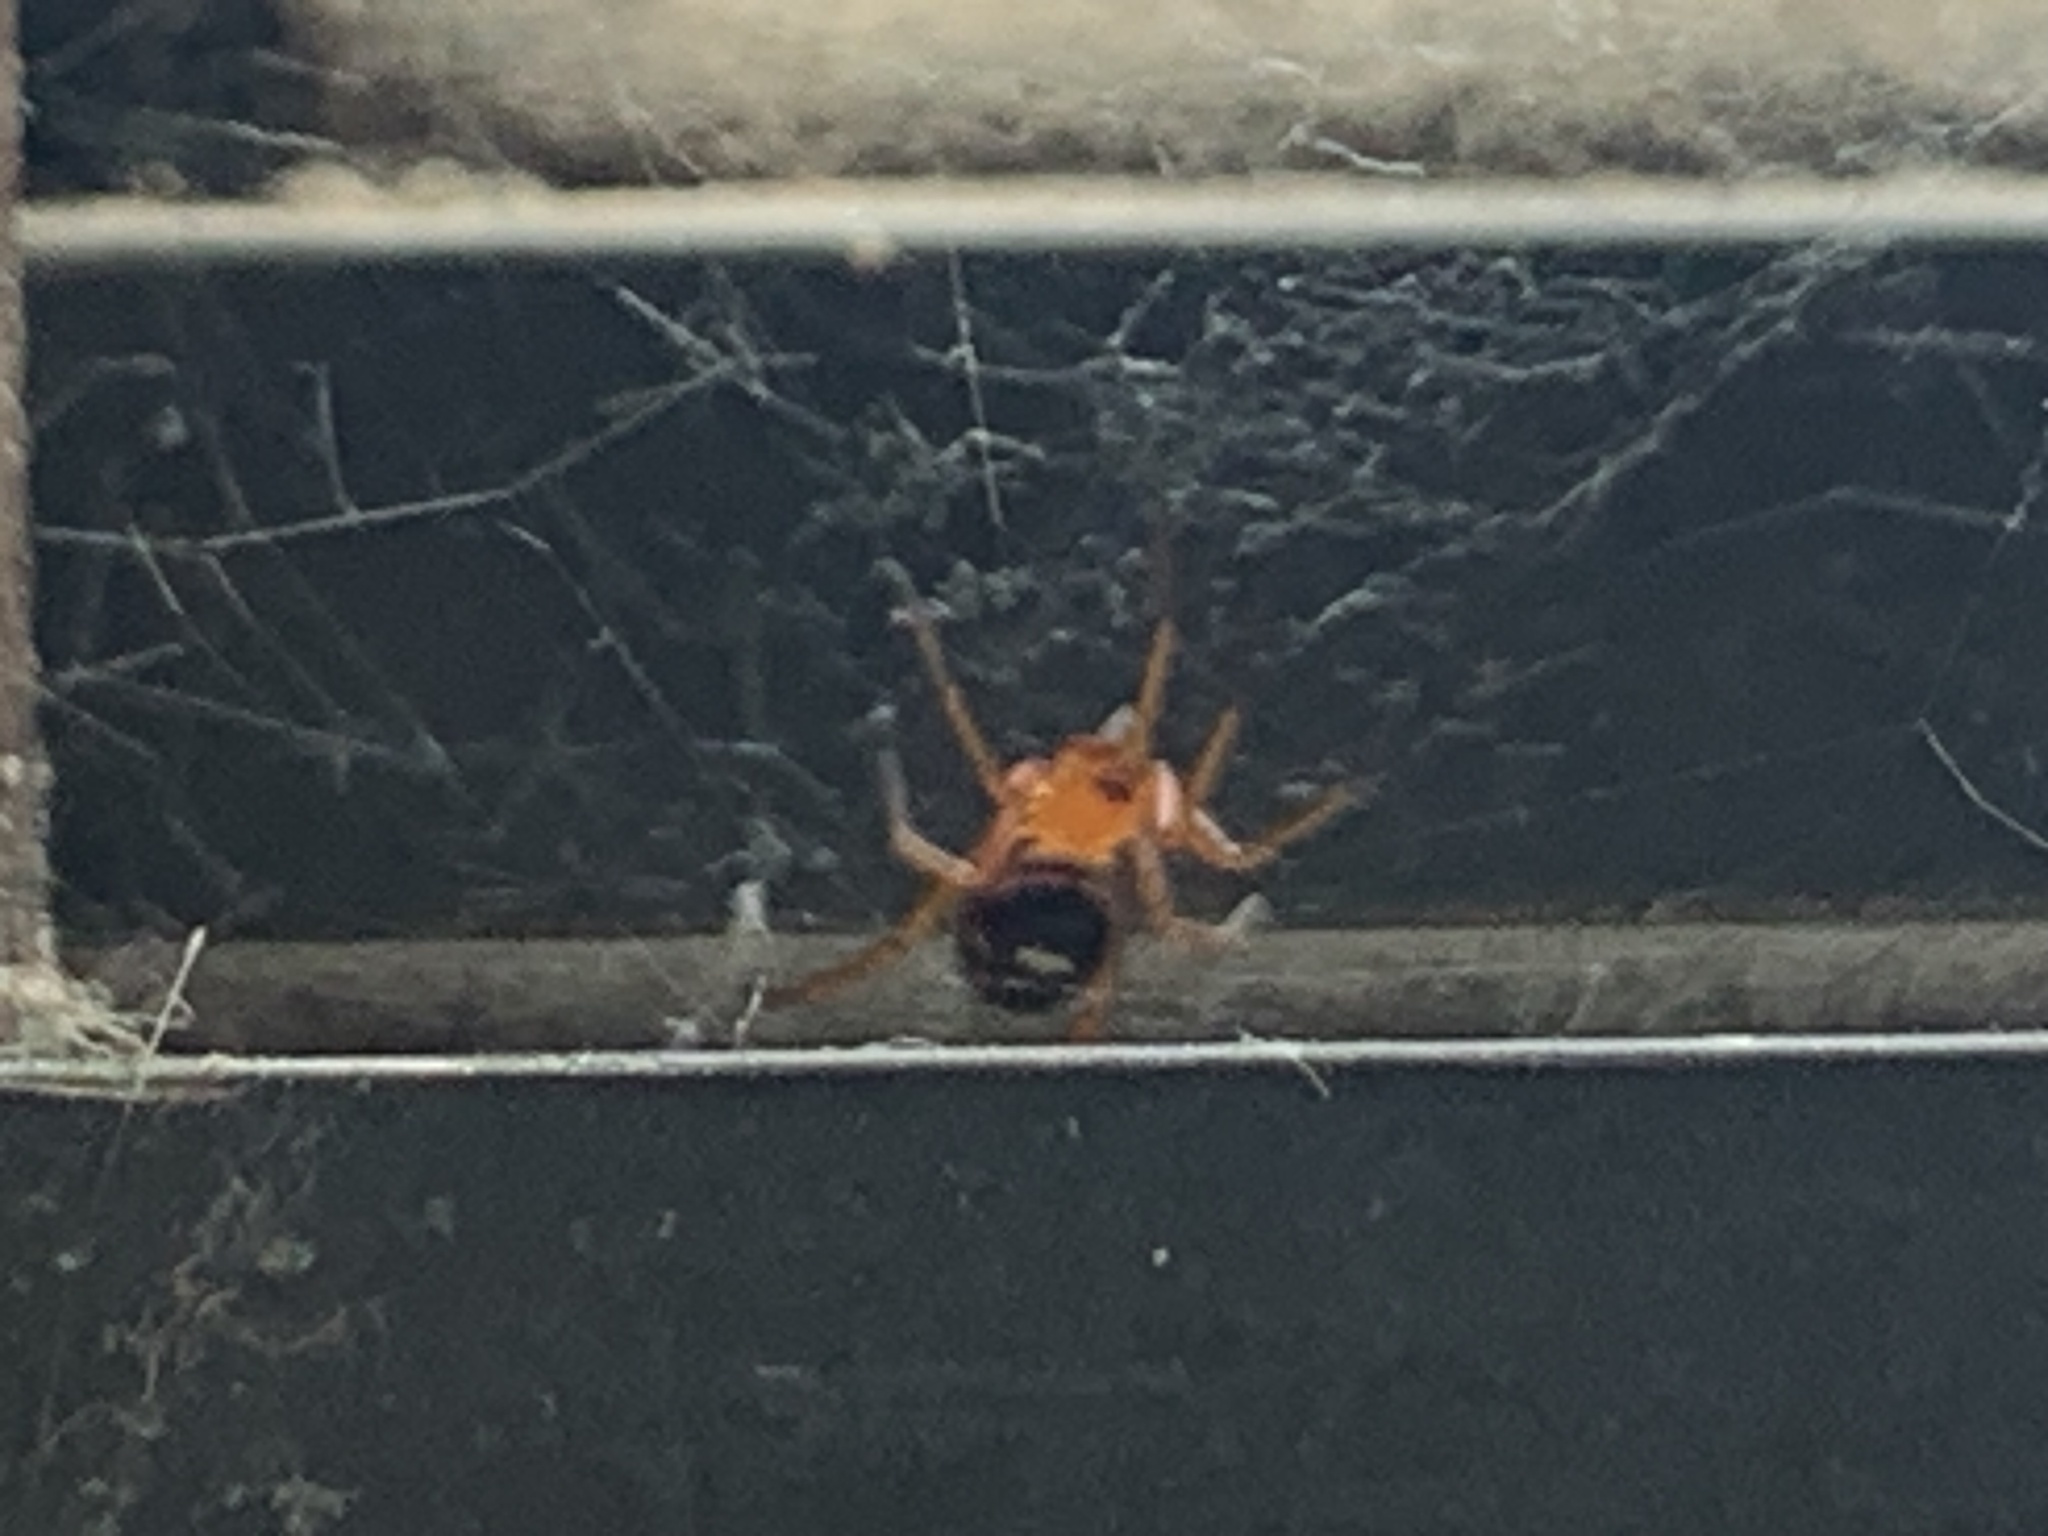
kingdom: Animalia
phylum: Arthropoda
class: Arachnida
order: Araneae
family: Theridiidae
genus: Steatoda
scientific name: Steatoda grossa
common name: False black widow
